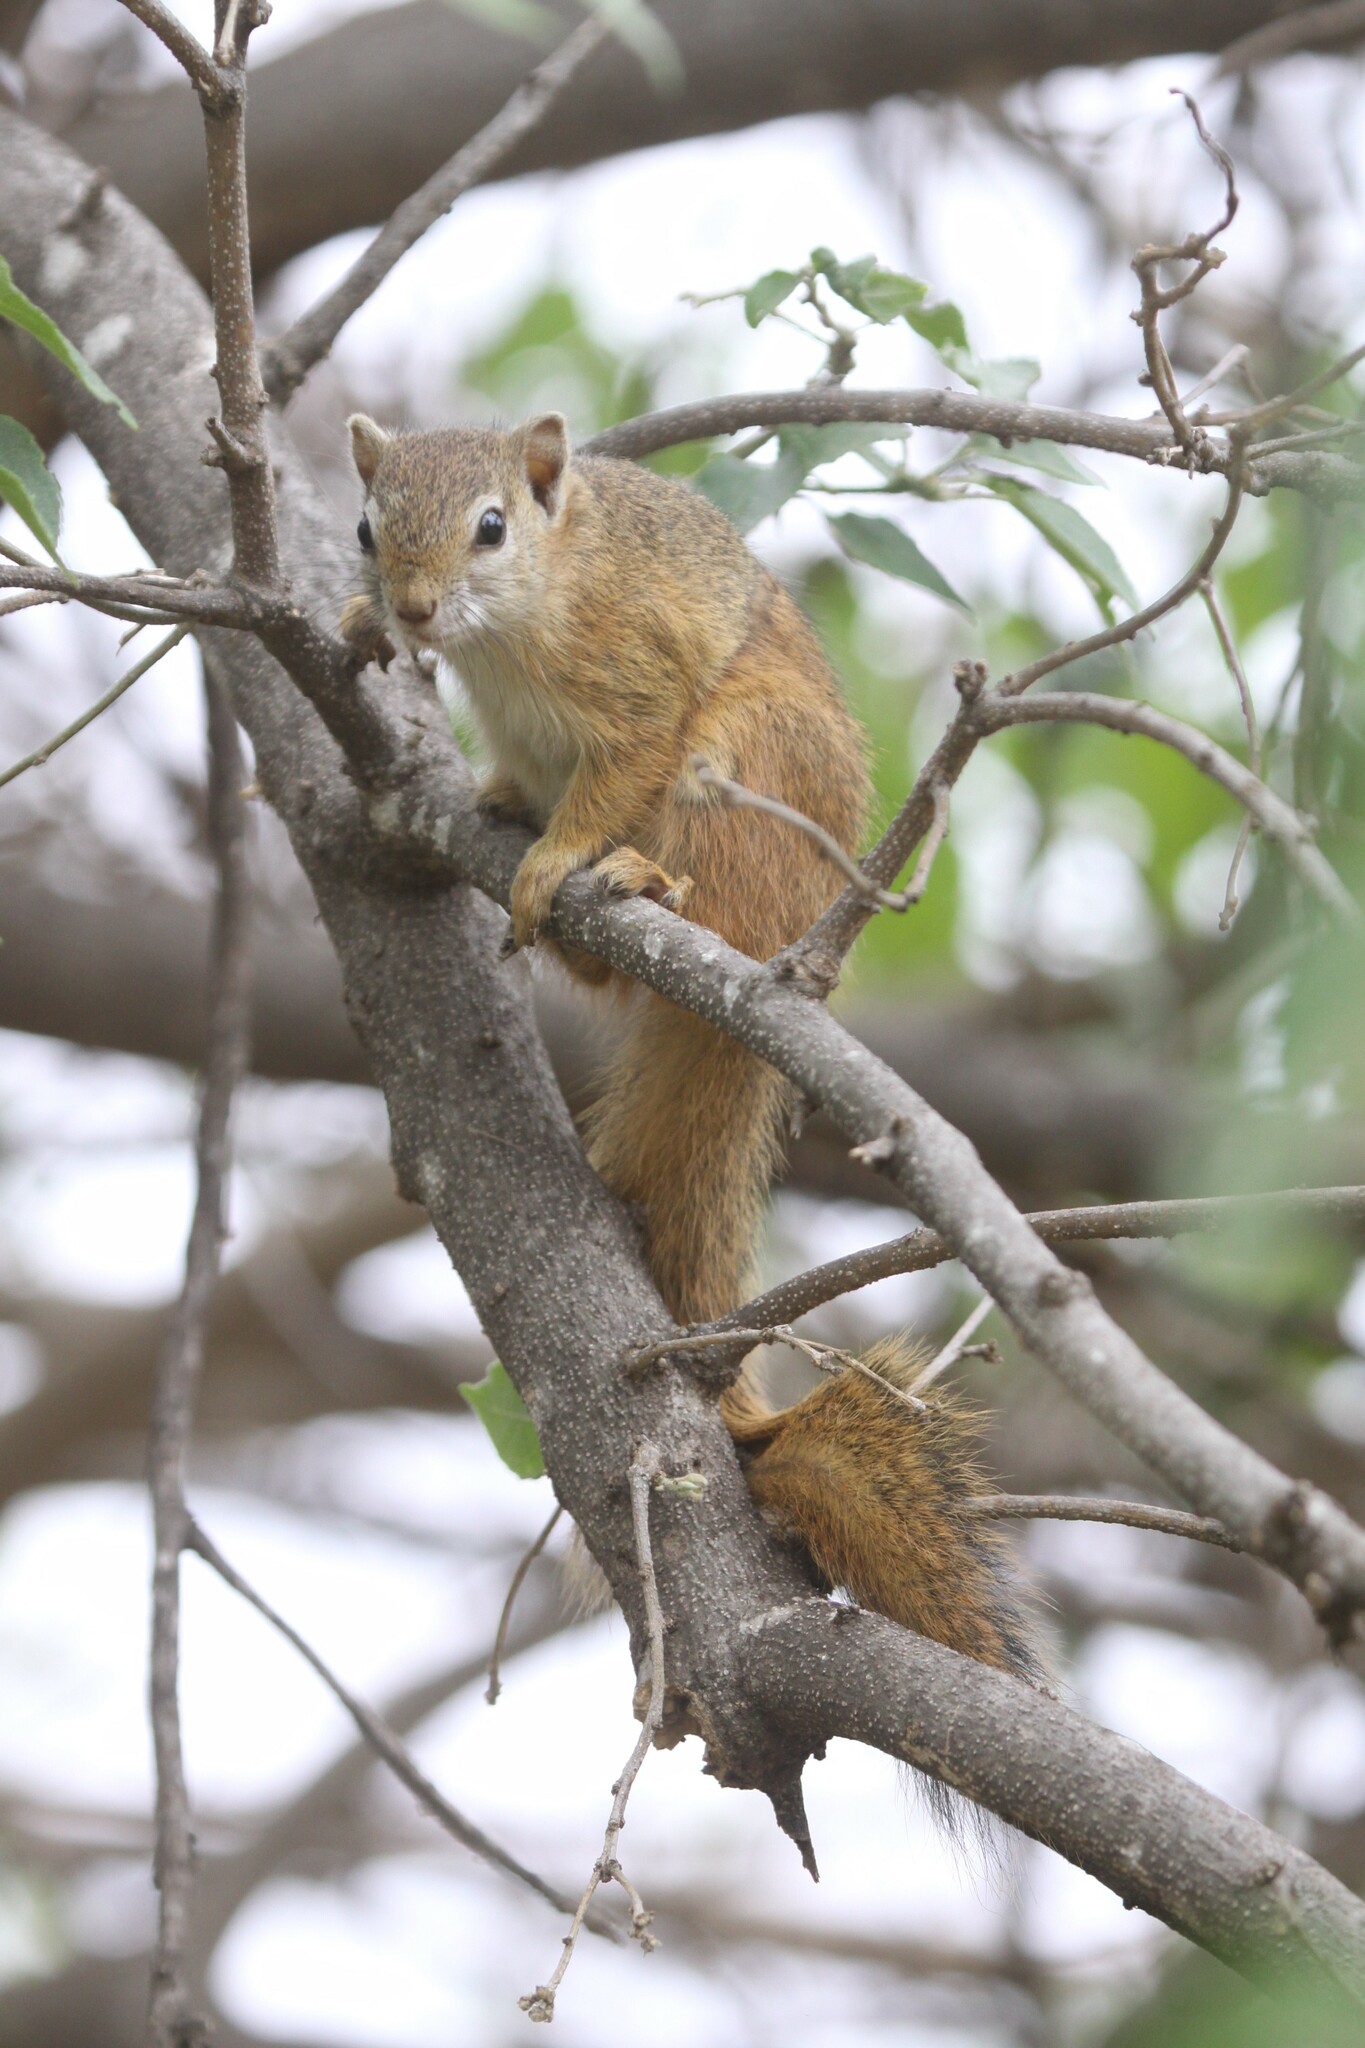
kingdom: Animalia
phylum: Chordata
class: Mammalia
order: Rodentia
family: Sciuridae
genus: Paraxerus
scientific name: Paraxerus cepapi
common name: Smith's bush squirrel
